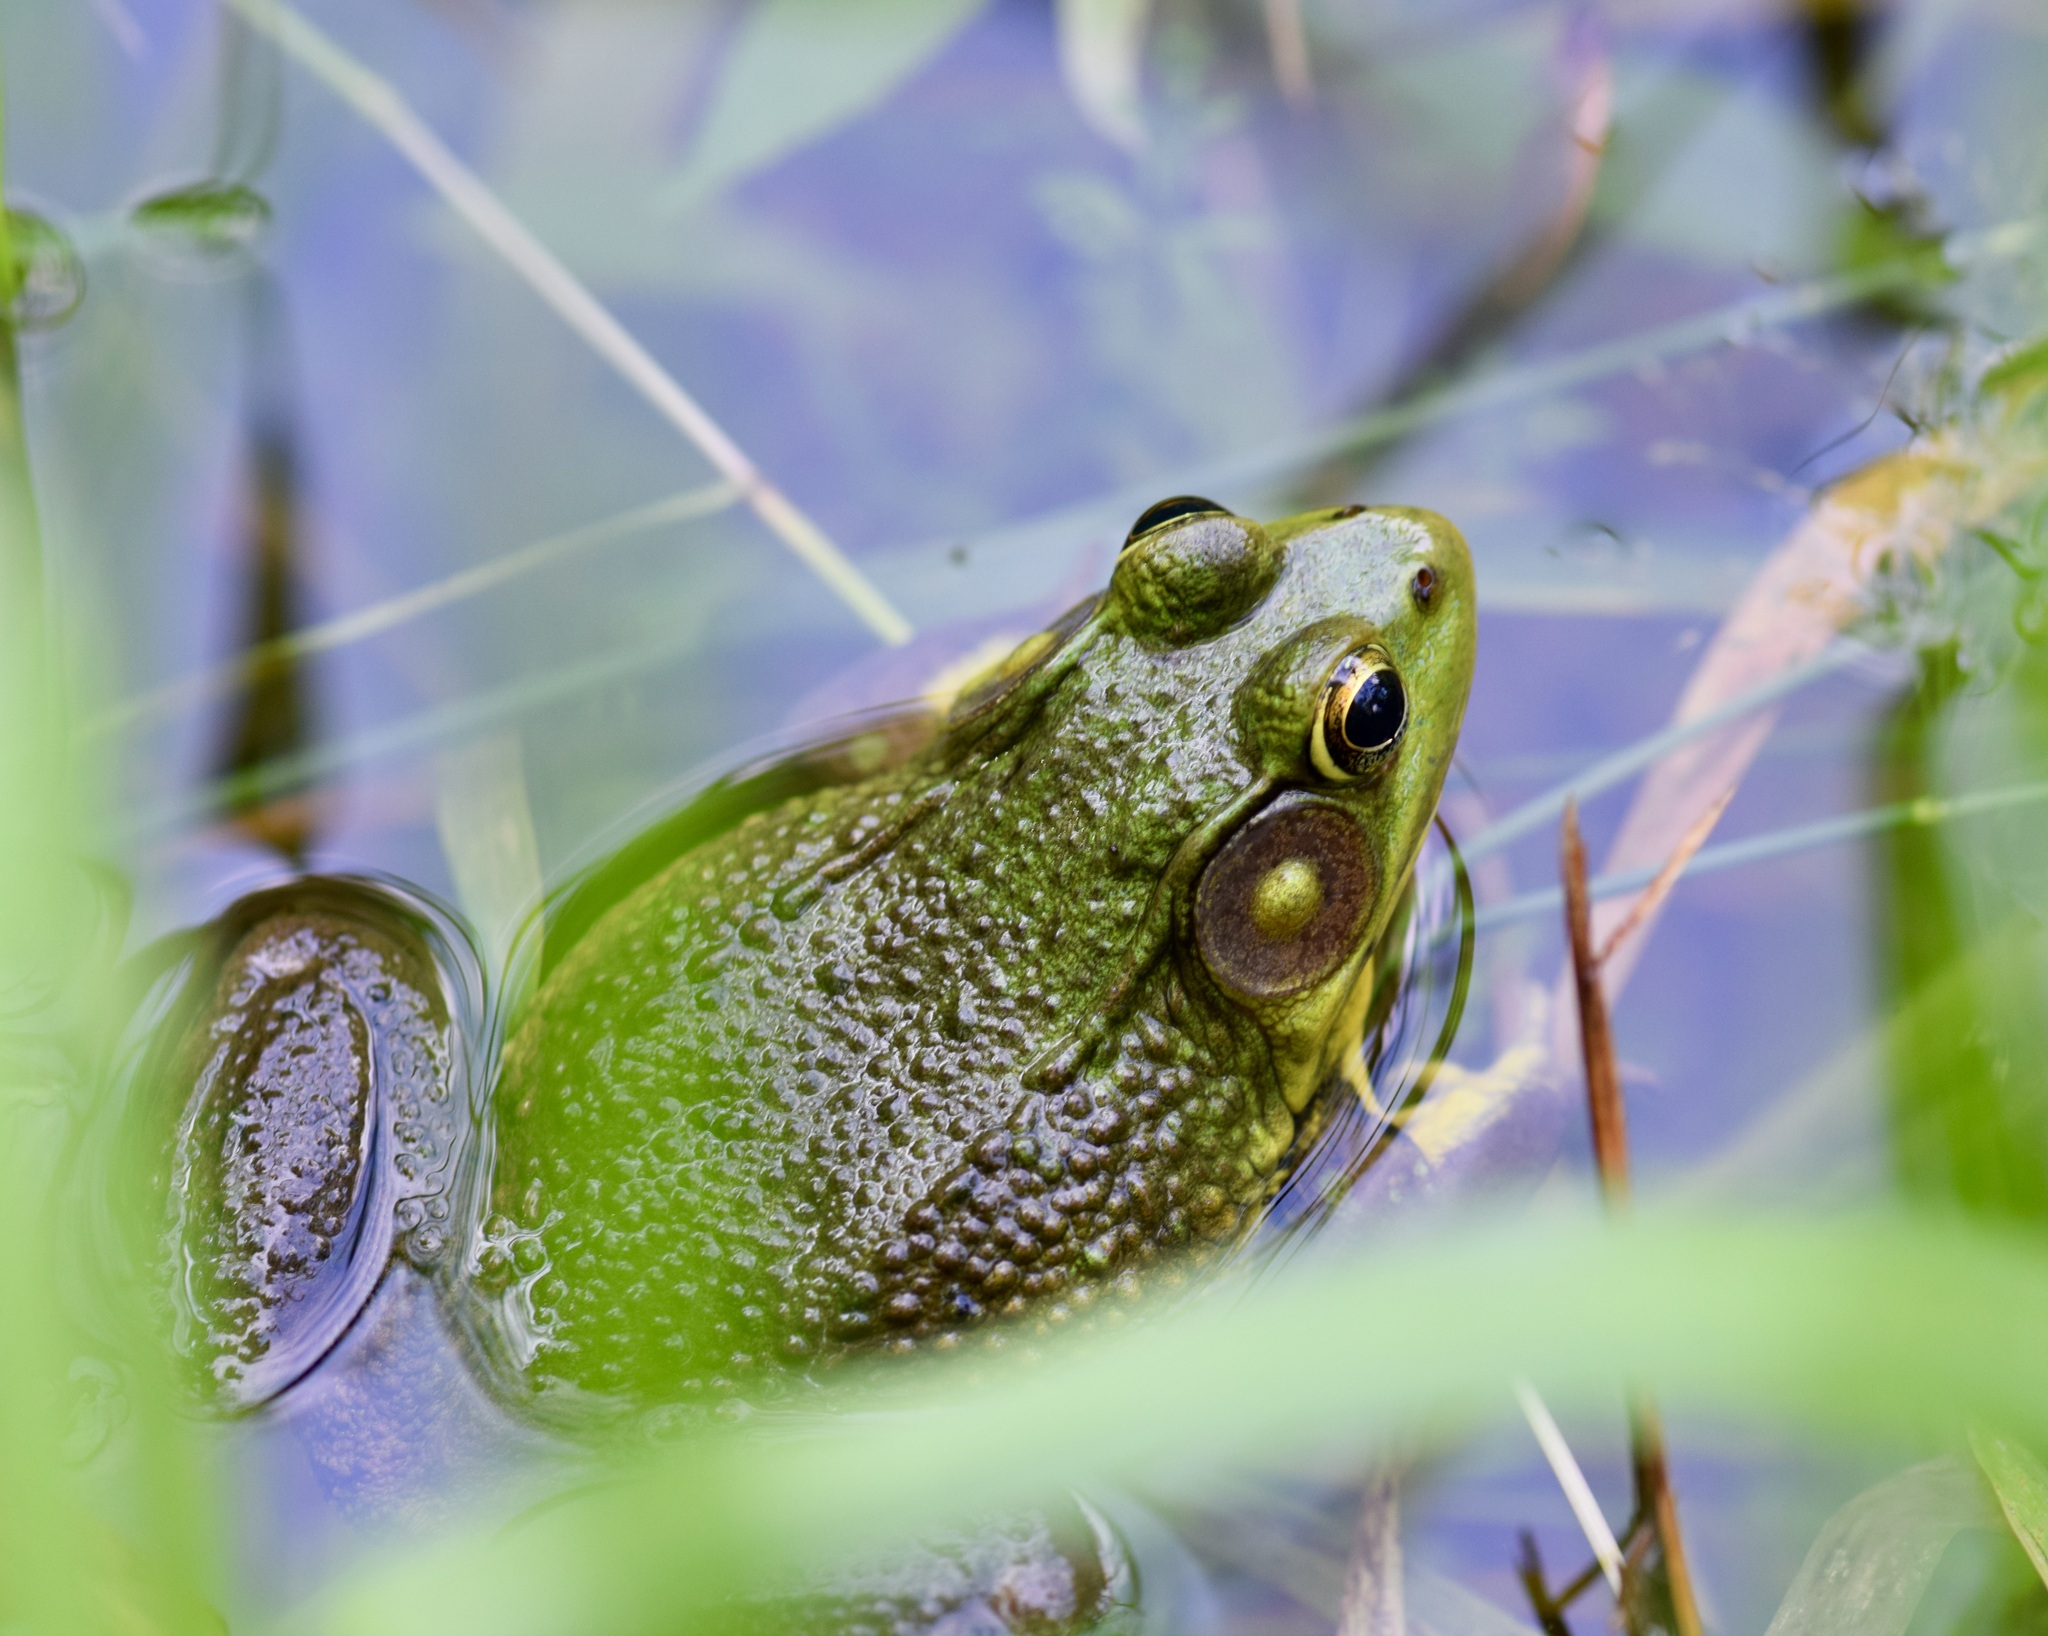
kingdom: Animalia
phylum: Chordata
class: Amphibia
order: Anura
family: Ranidae
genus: Lithobates
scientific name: Lithobates clamitans
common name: Green frog
